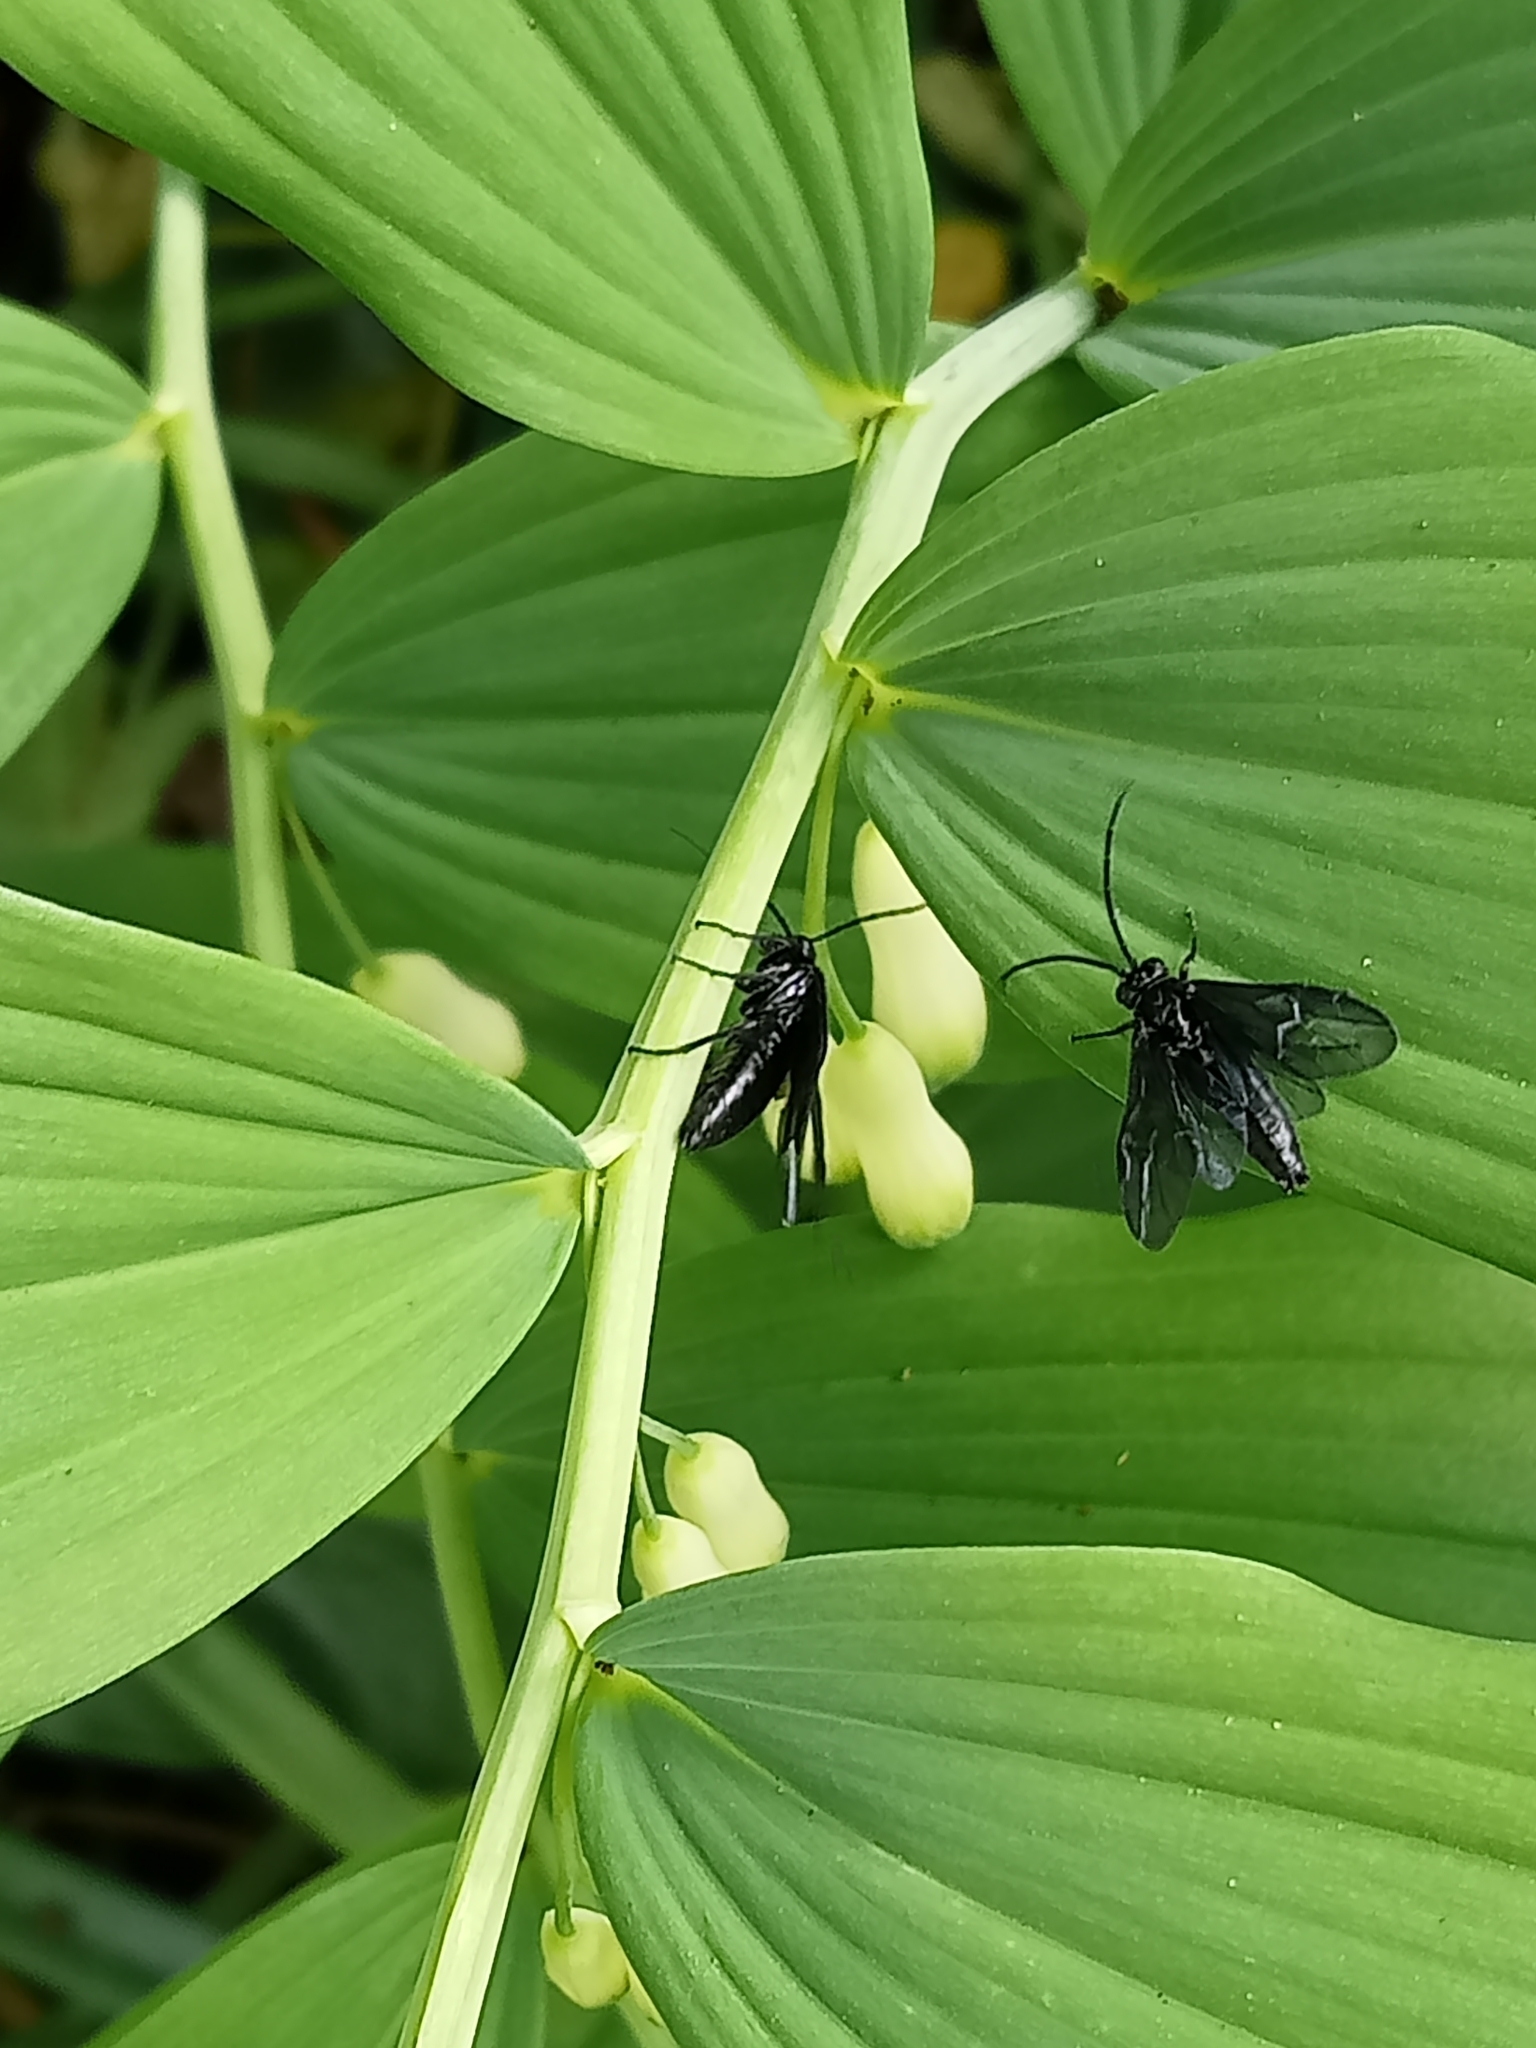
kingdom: Animalia
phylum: Arthropoda
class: Insecta
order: Hymenoptera
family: Tenthredinidae
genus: Phymatocera
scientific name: Phymatocera aterrima
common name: Solomon's-seal sawfly
